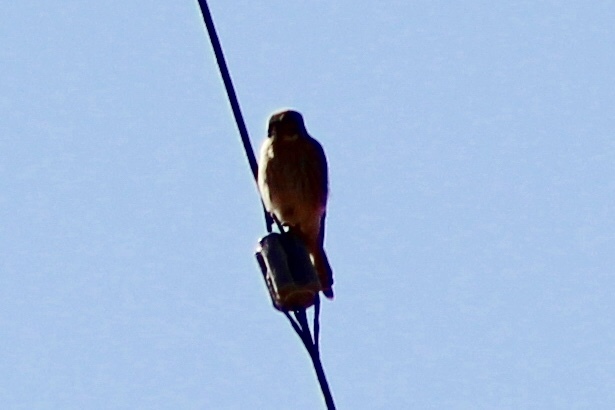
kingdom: Animalia
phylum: Chordata
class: Aves
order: Falconiformes
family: Falconidae
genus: Falco
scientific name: Falco sparverius
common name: American kestrel
